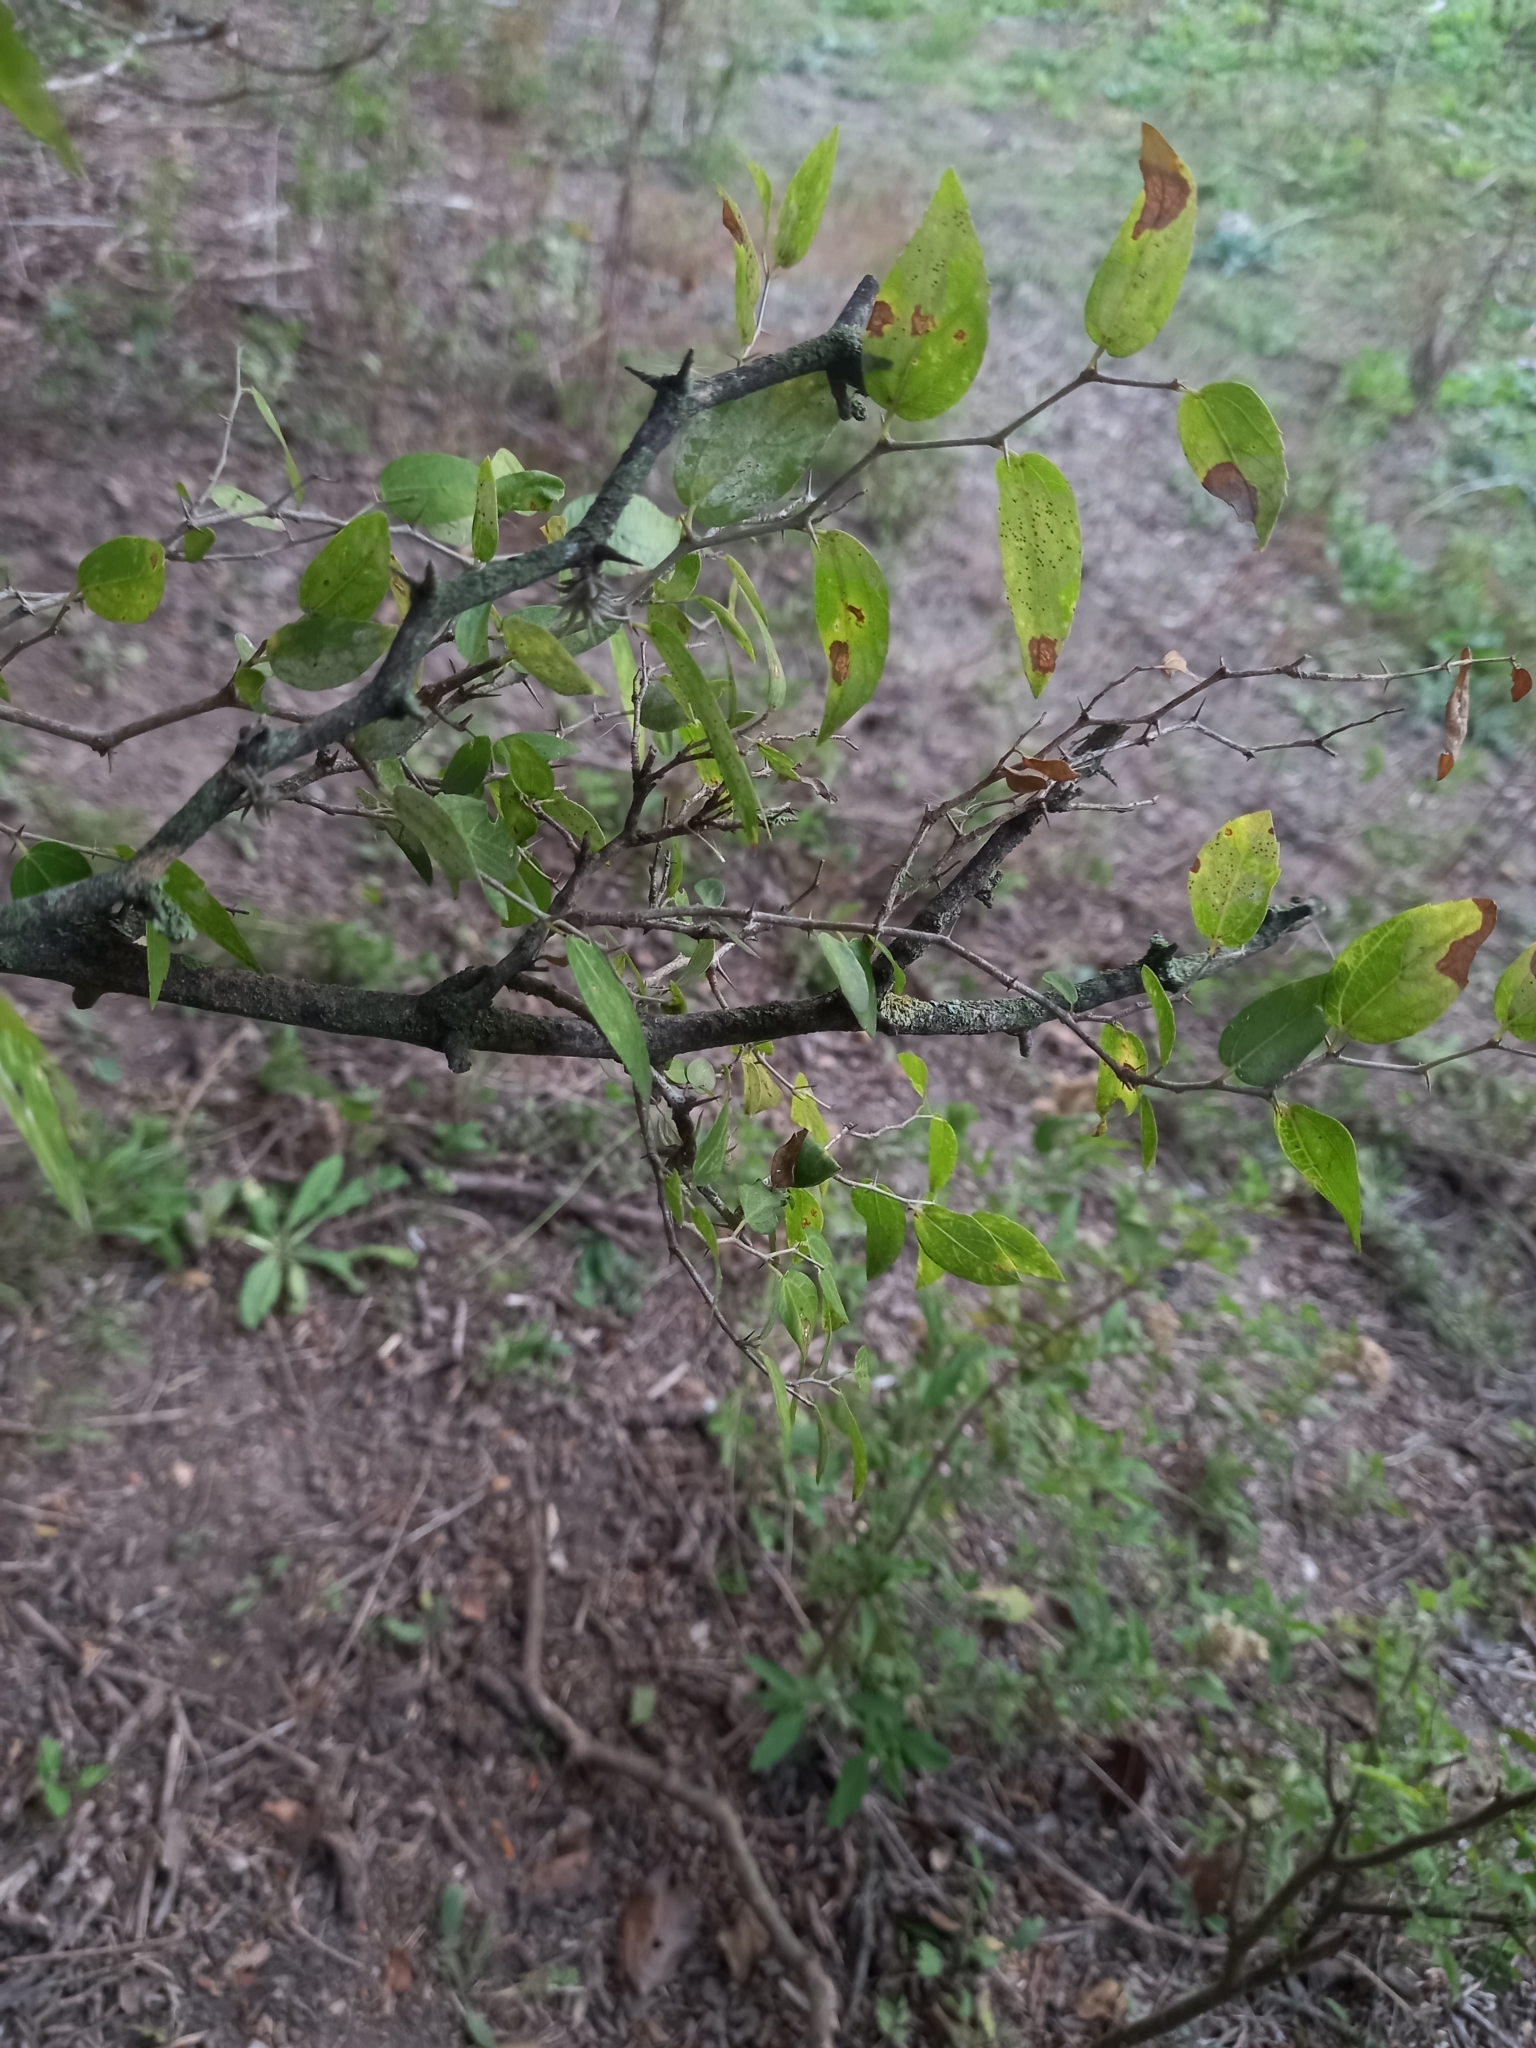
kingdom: Plantae
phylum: Tracheophyta
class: Magnoliopsida
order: Rosales
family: Cannabaceae
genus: Celtis
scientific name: Celtis tala
